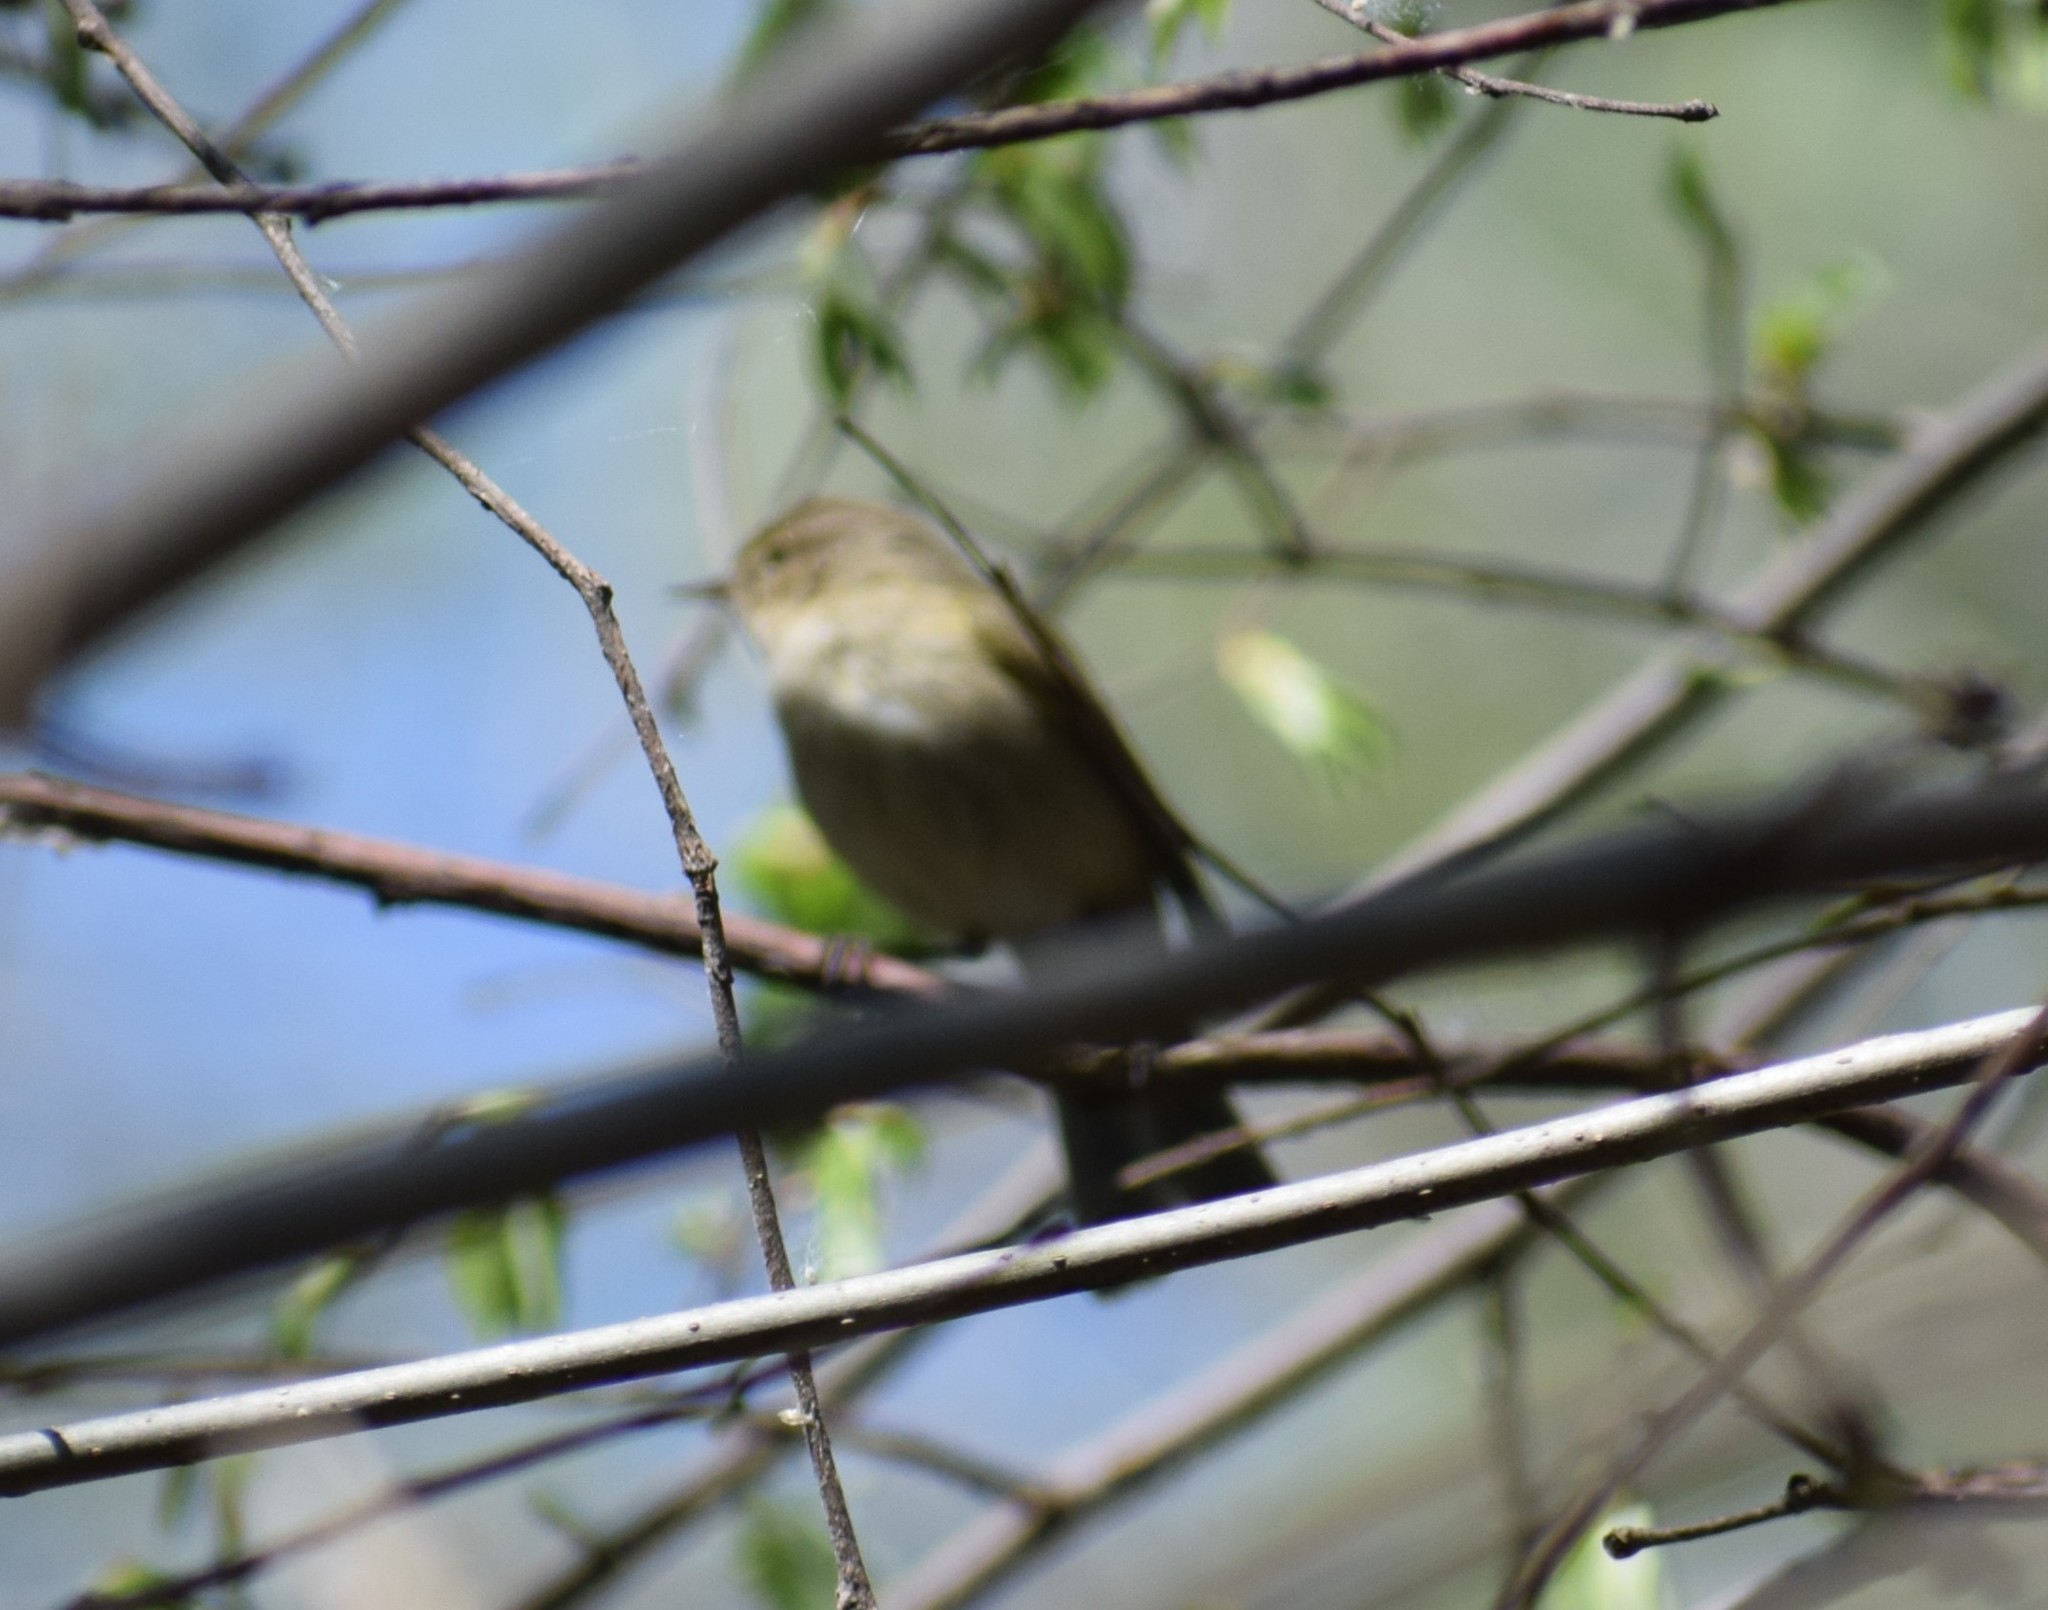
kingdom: Animalia
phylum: Chordata
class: Aves
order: Passeriformes
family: Phylloscopidae
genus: Phylloscopus
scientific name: Phylloscopus
